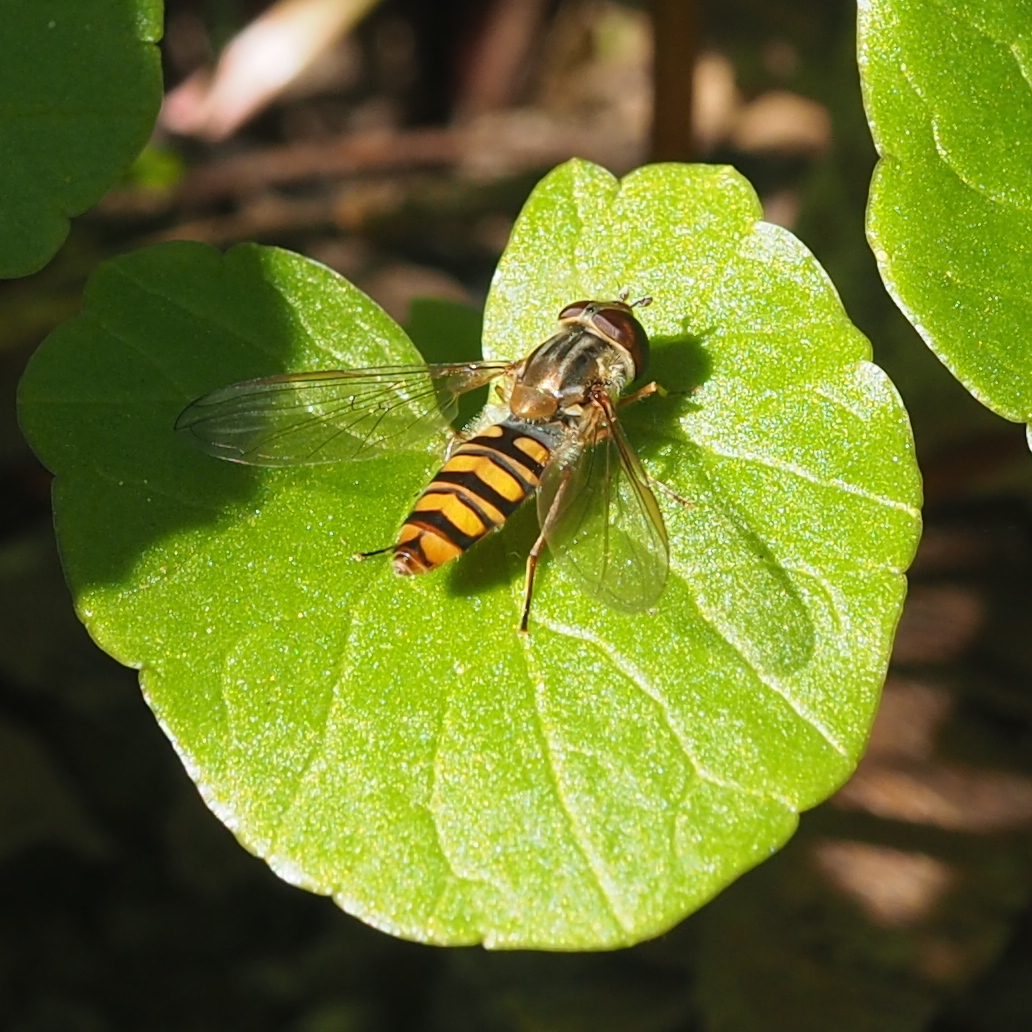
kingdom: Animalia
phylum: Arthropoda
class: Insecta
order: Diptera
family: Syrphidae
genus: Episyrphus
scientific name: Episyrphus balteatus
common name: Marmalade hoverfly
